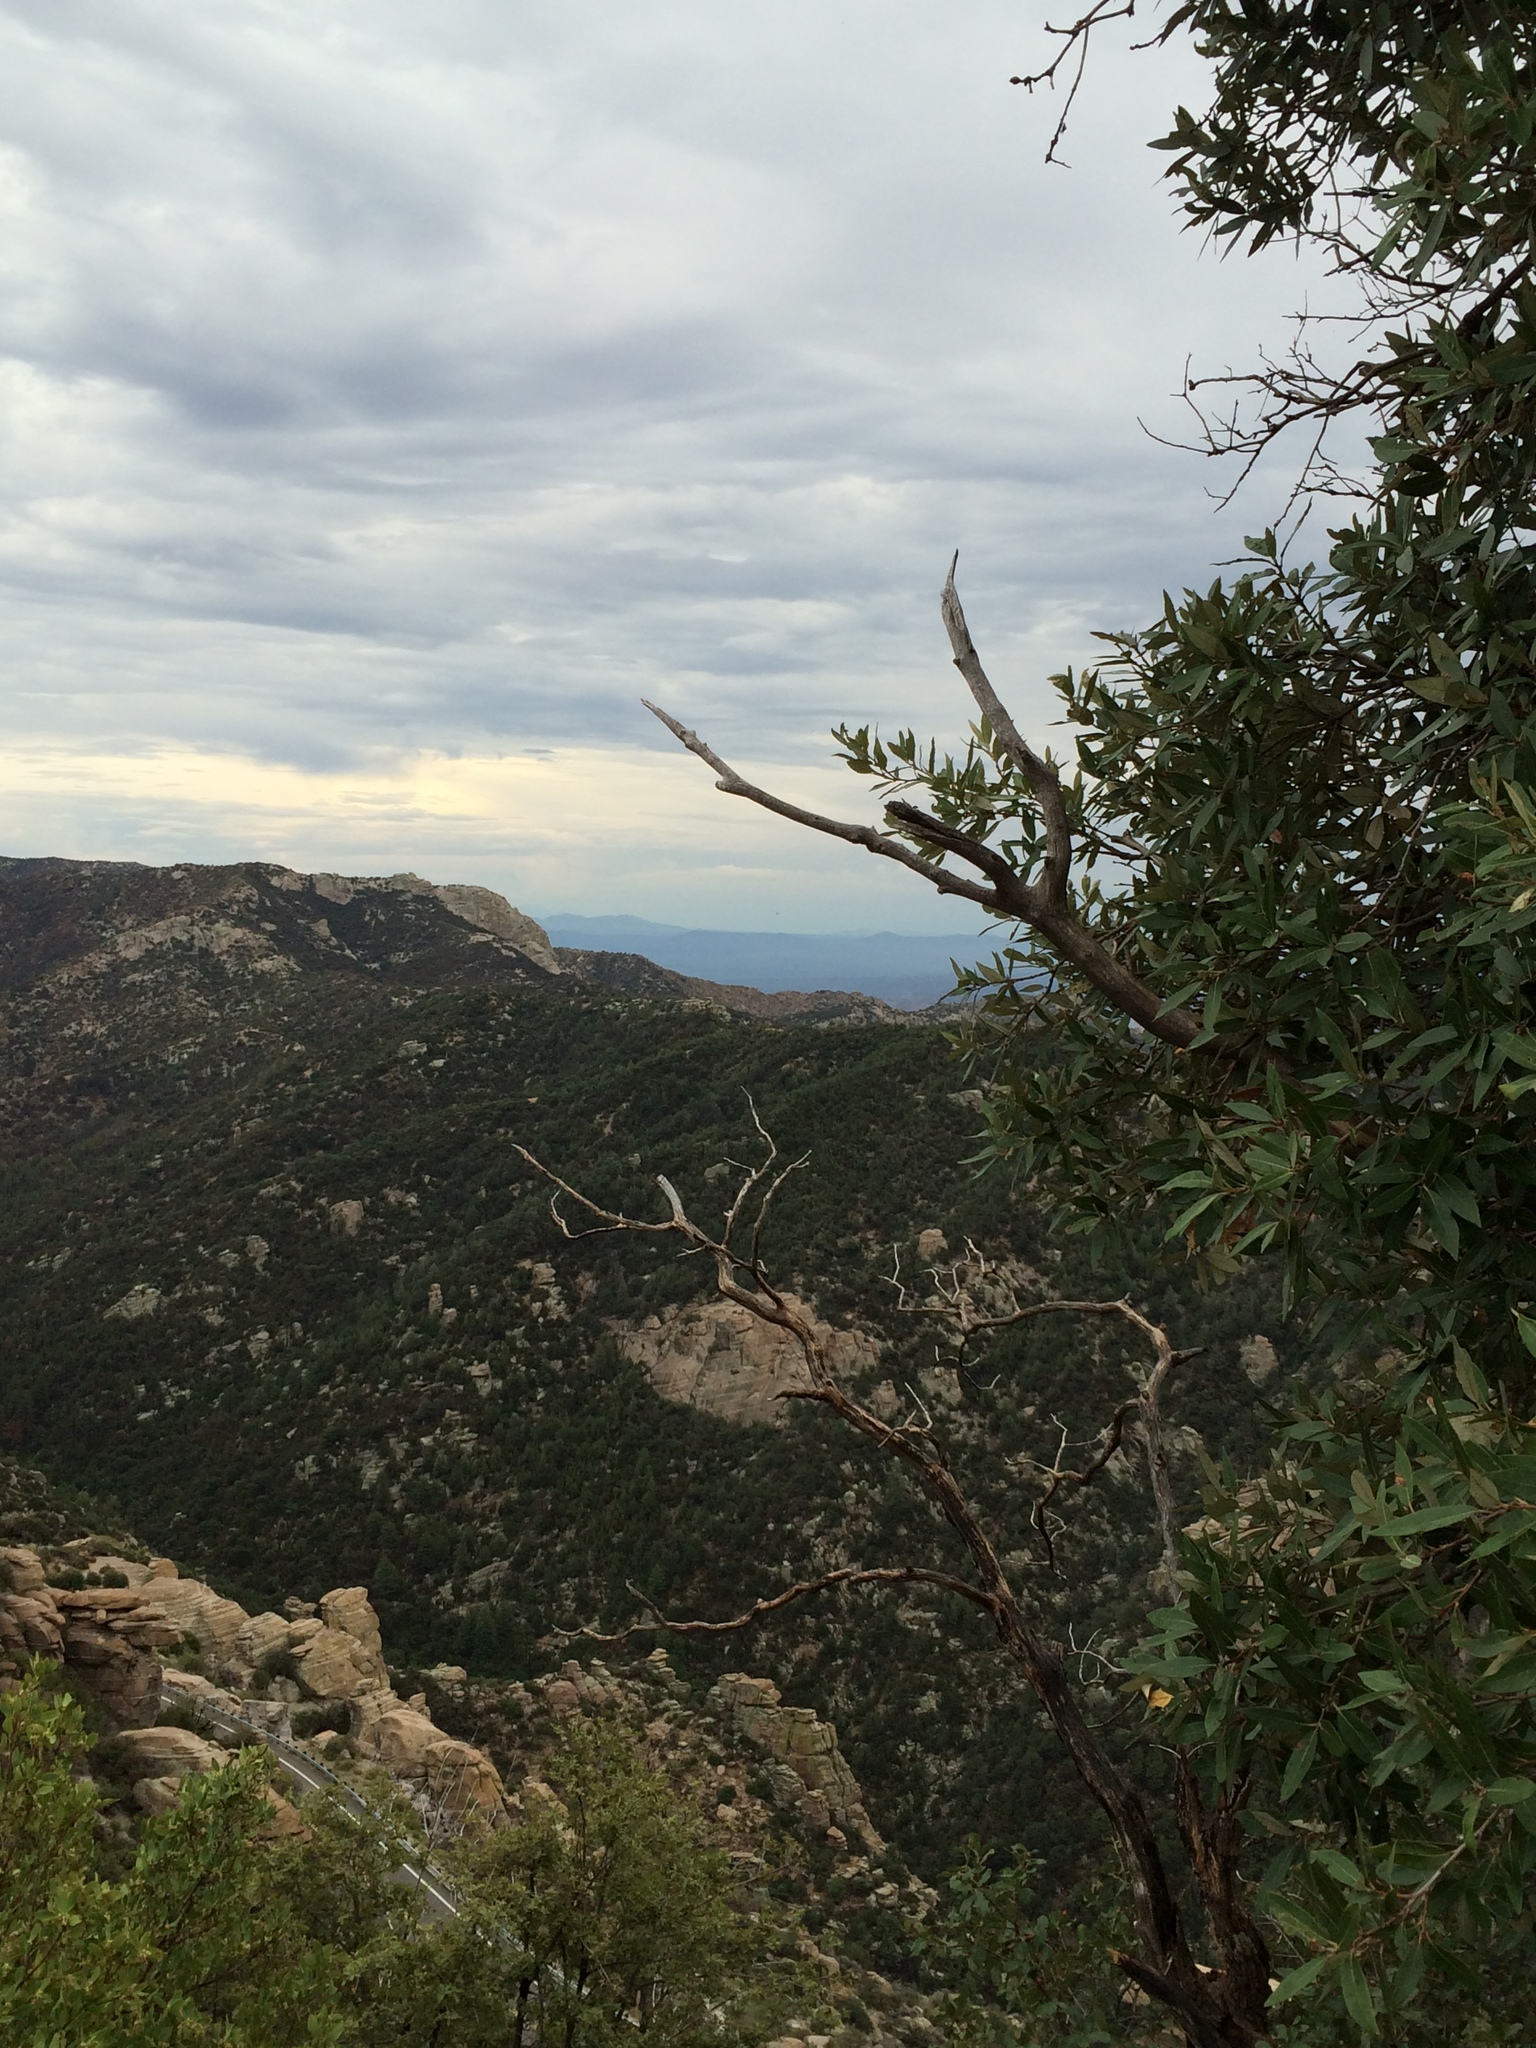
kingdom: Plantae
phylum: Tracheophyta
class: Magnoliopsida
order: Fagales
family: Fagaceae
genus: Quercus
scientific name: Quercus hypoleucoides
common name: Silverleaf oak
